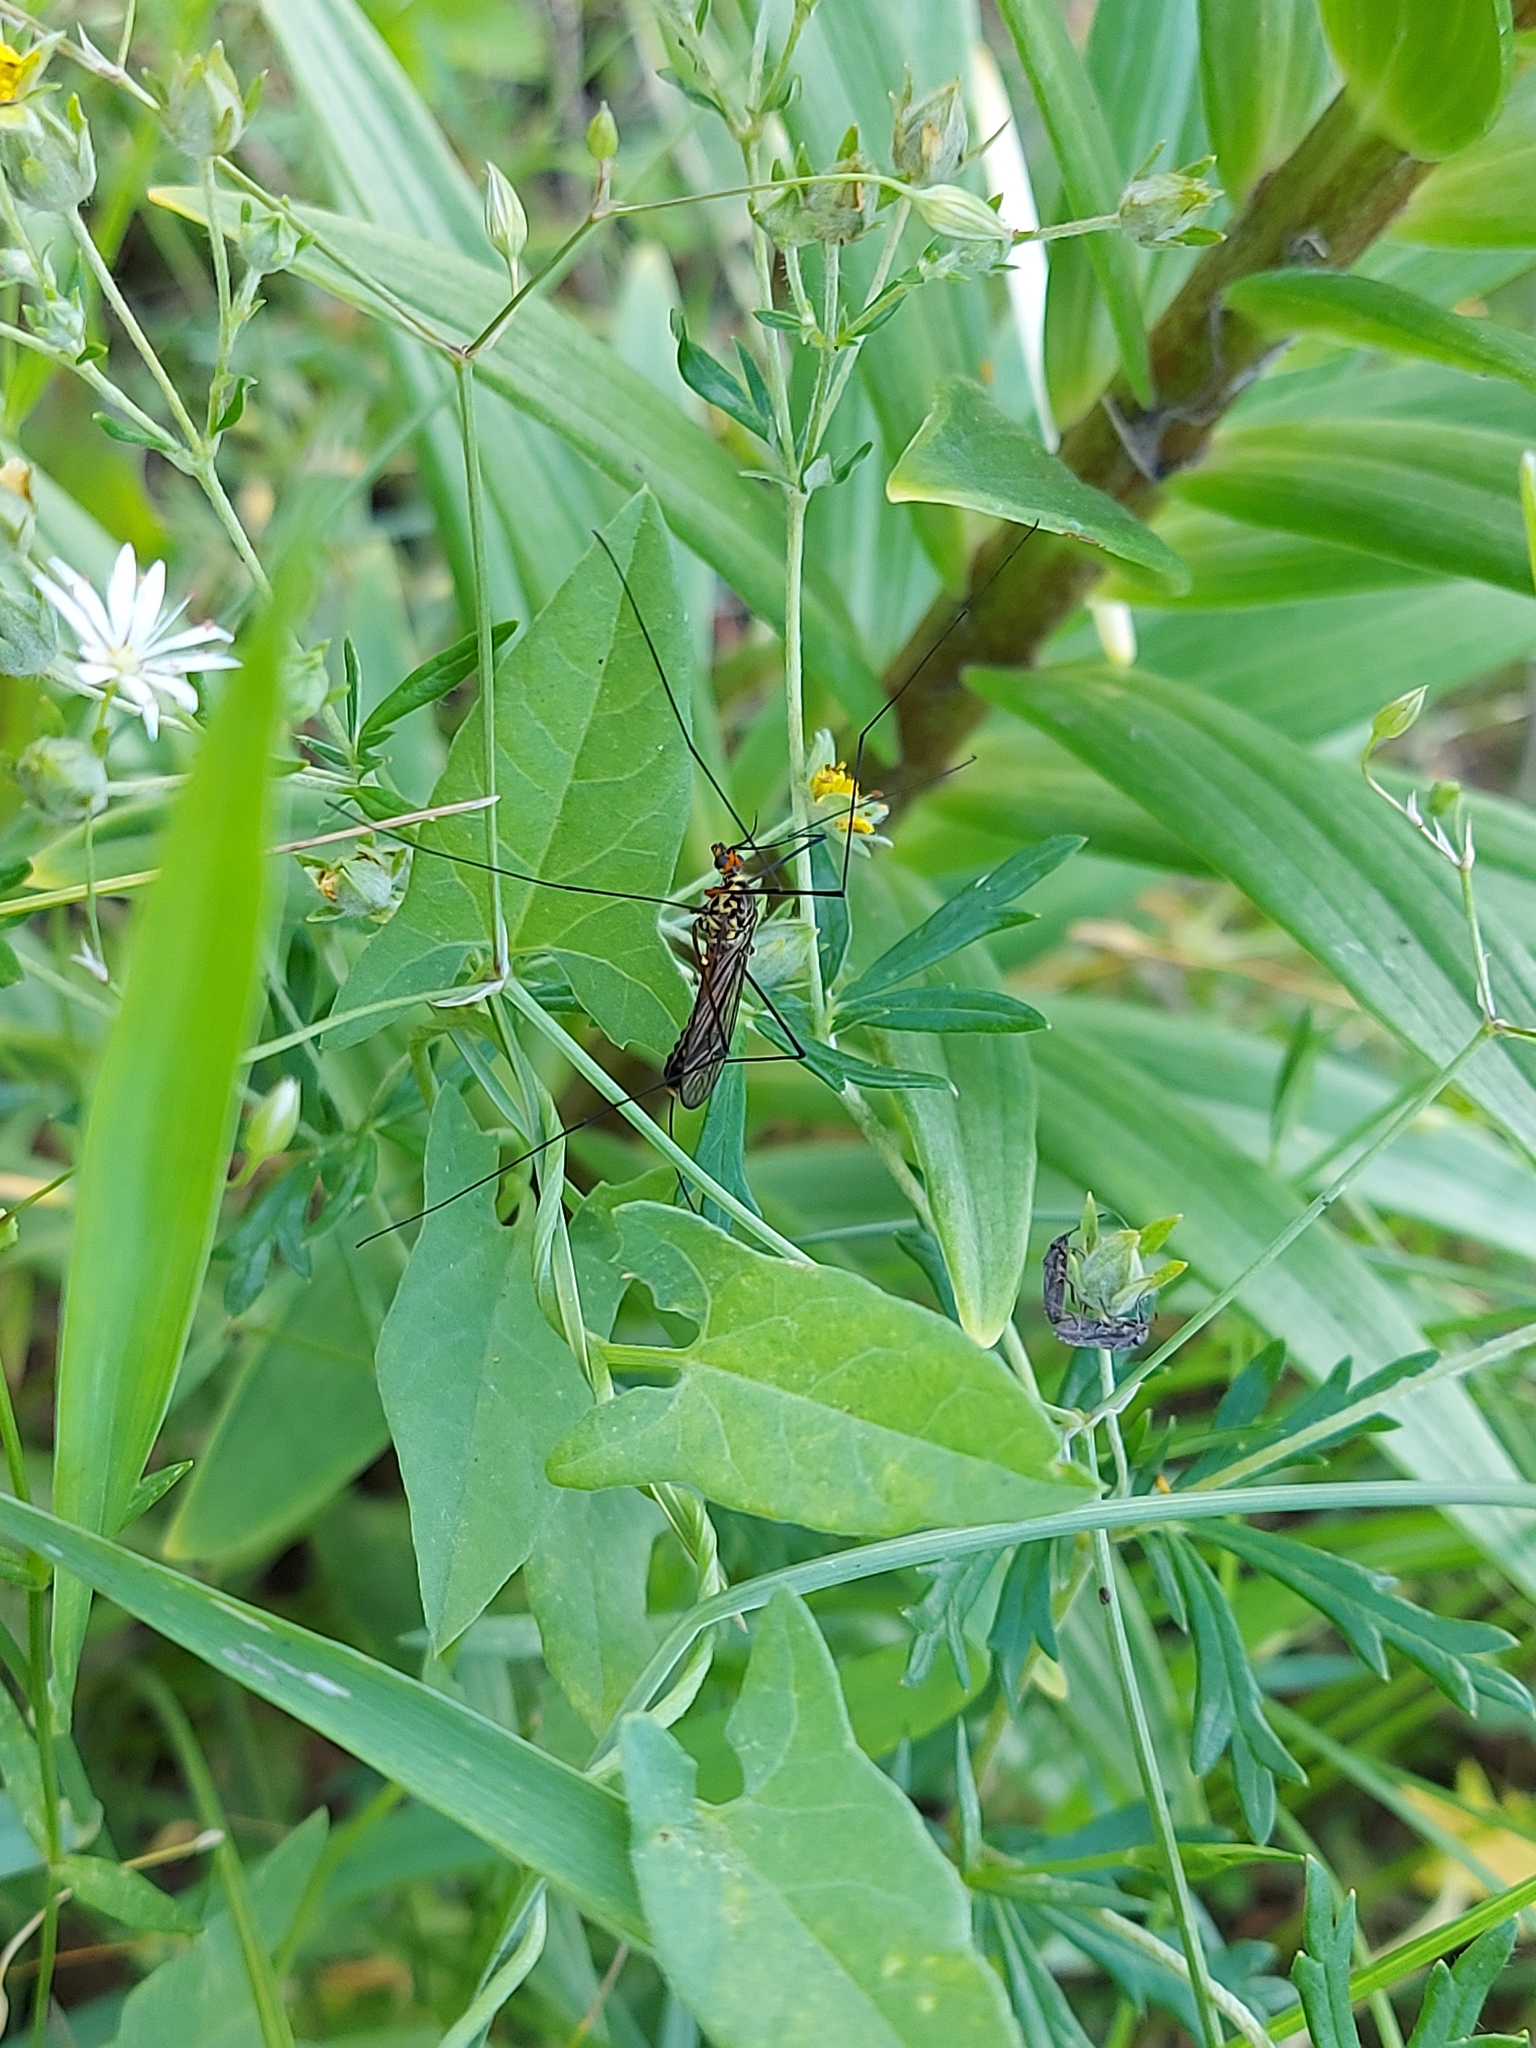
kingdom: Plantae
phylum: Tracheophyta
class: Magnoliopsida
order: Solanales
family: Convolvulaceae
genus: Convolvulus
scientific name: Convolvulus arvensis
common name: Field bindweed
